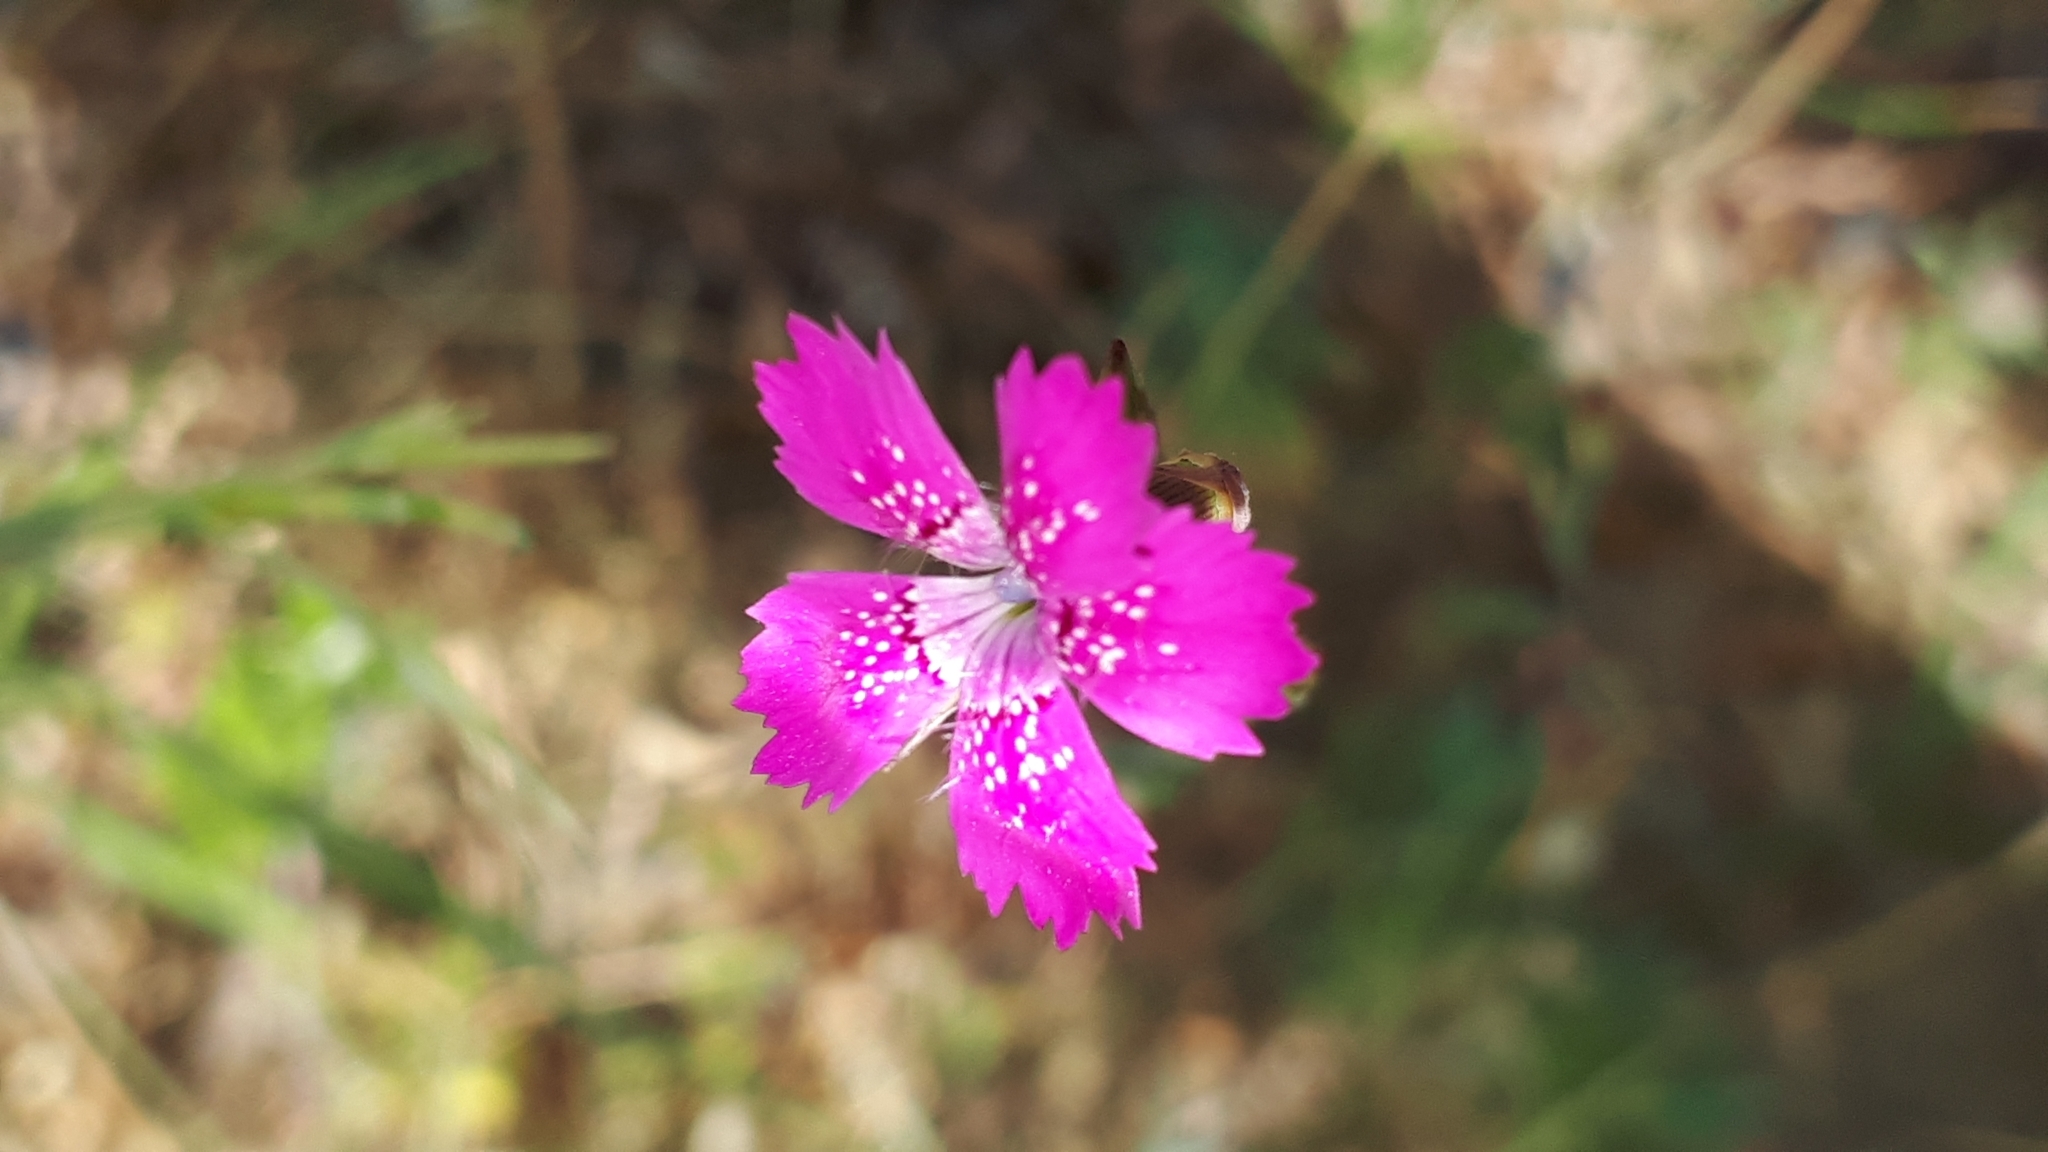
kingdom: Plantae
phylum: Tracheophyta
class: Magnoliopsida
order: Caryophyllales
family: Caryophyllaceae
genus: Dianthus
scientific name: Dianthus deltoides
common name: Maiden pink
